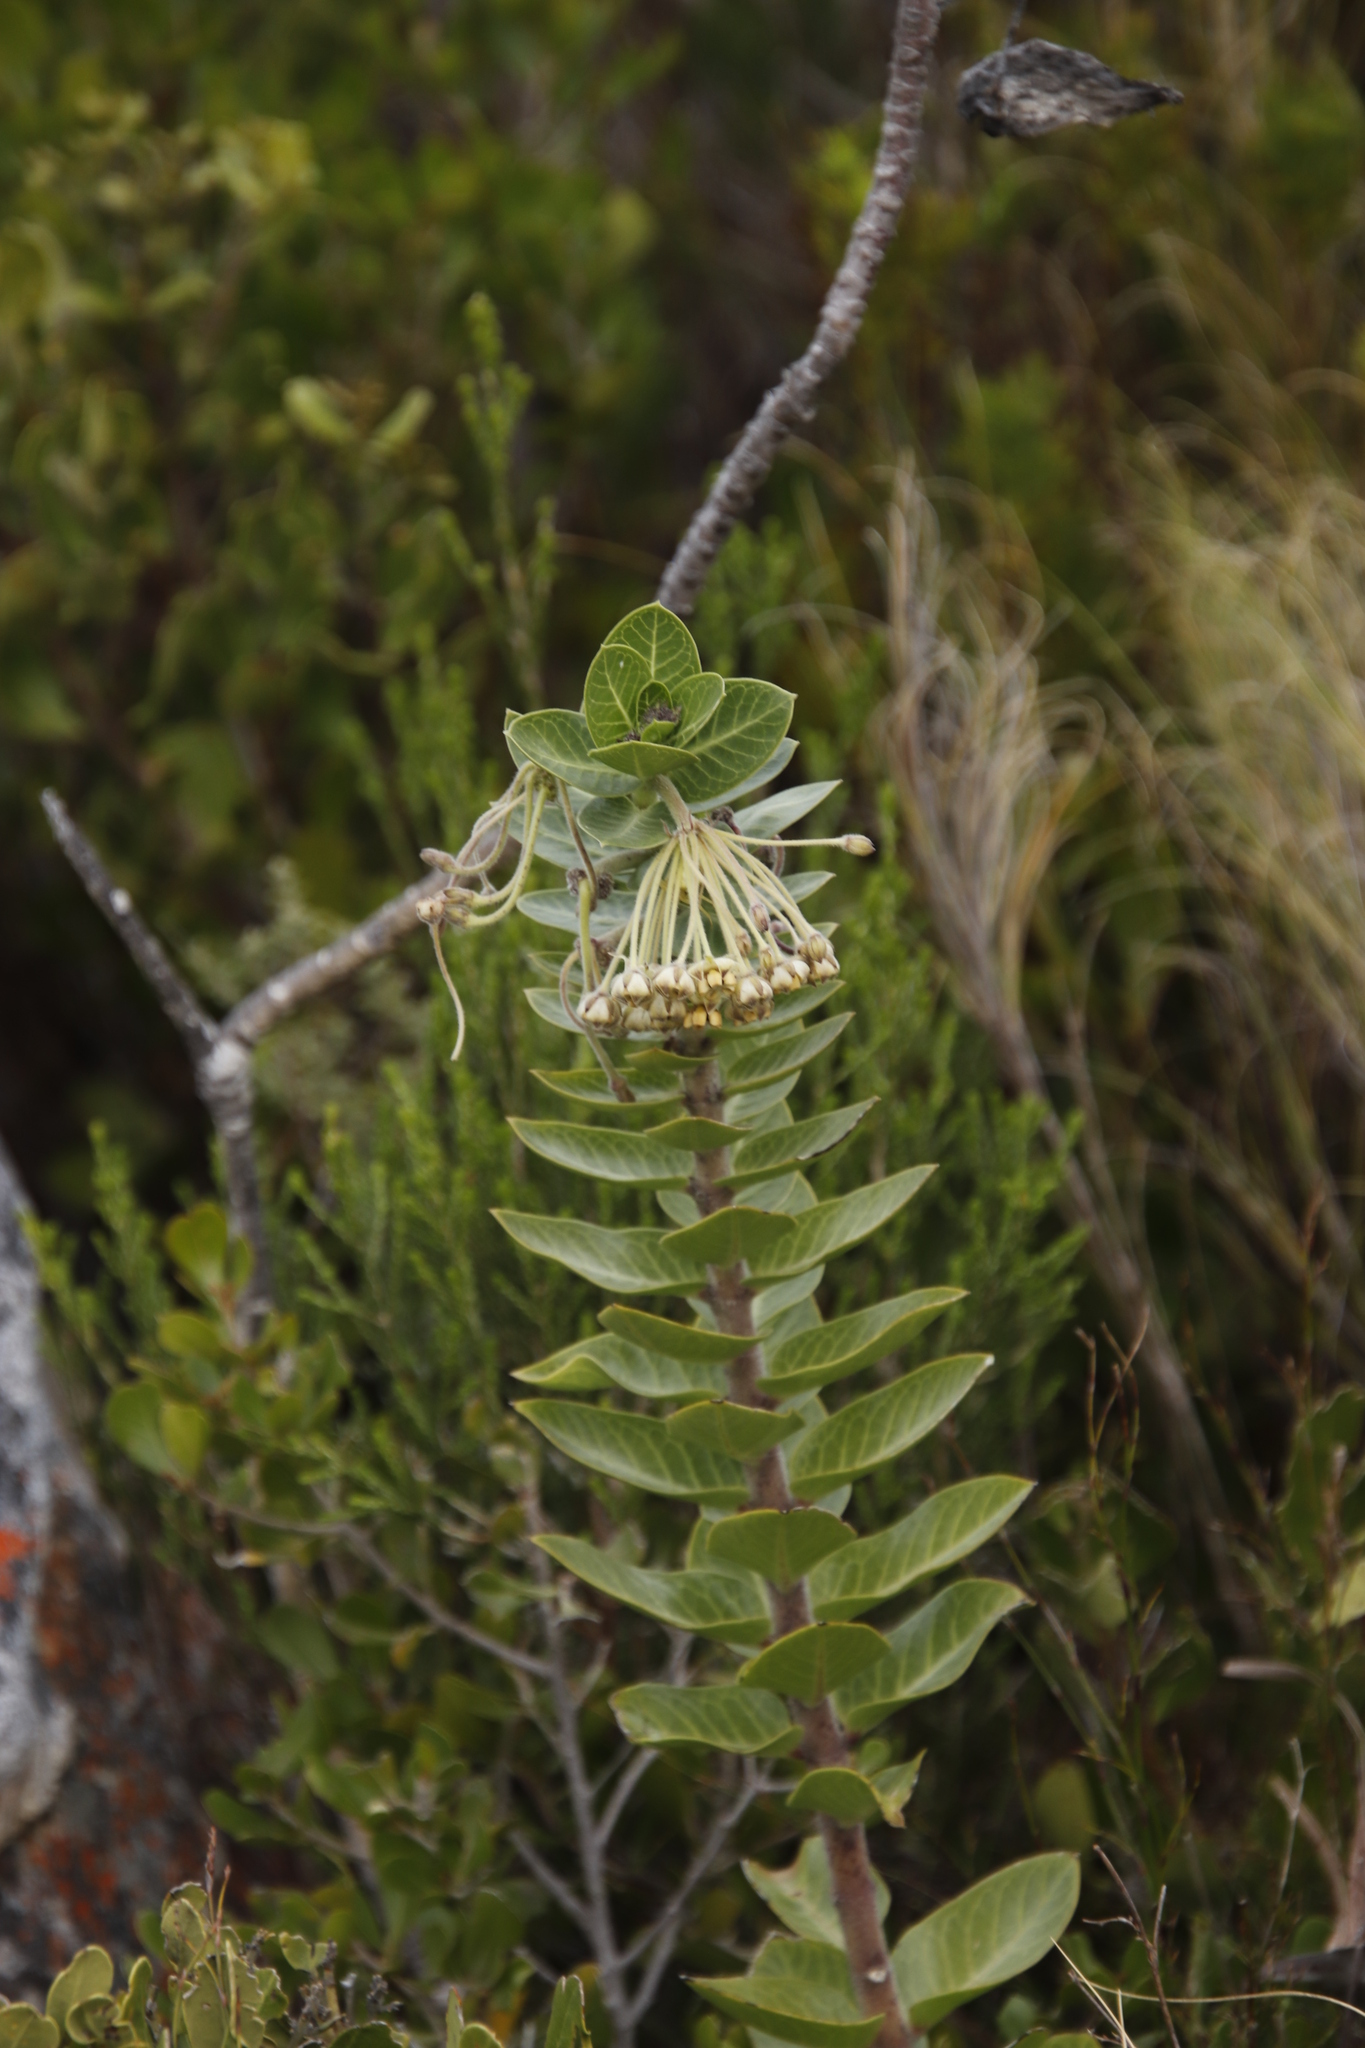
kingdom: Plantae
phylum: Tracheophyta
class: Magnoliopsida
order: Gentianales
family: Apocynaceae
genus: Gomphocarpus
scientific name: Gomphocarpus cancellatus
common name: Wild cotton
